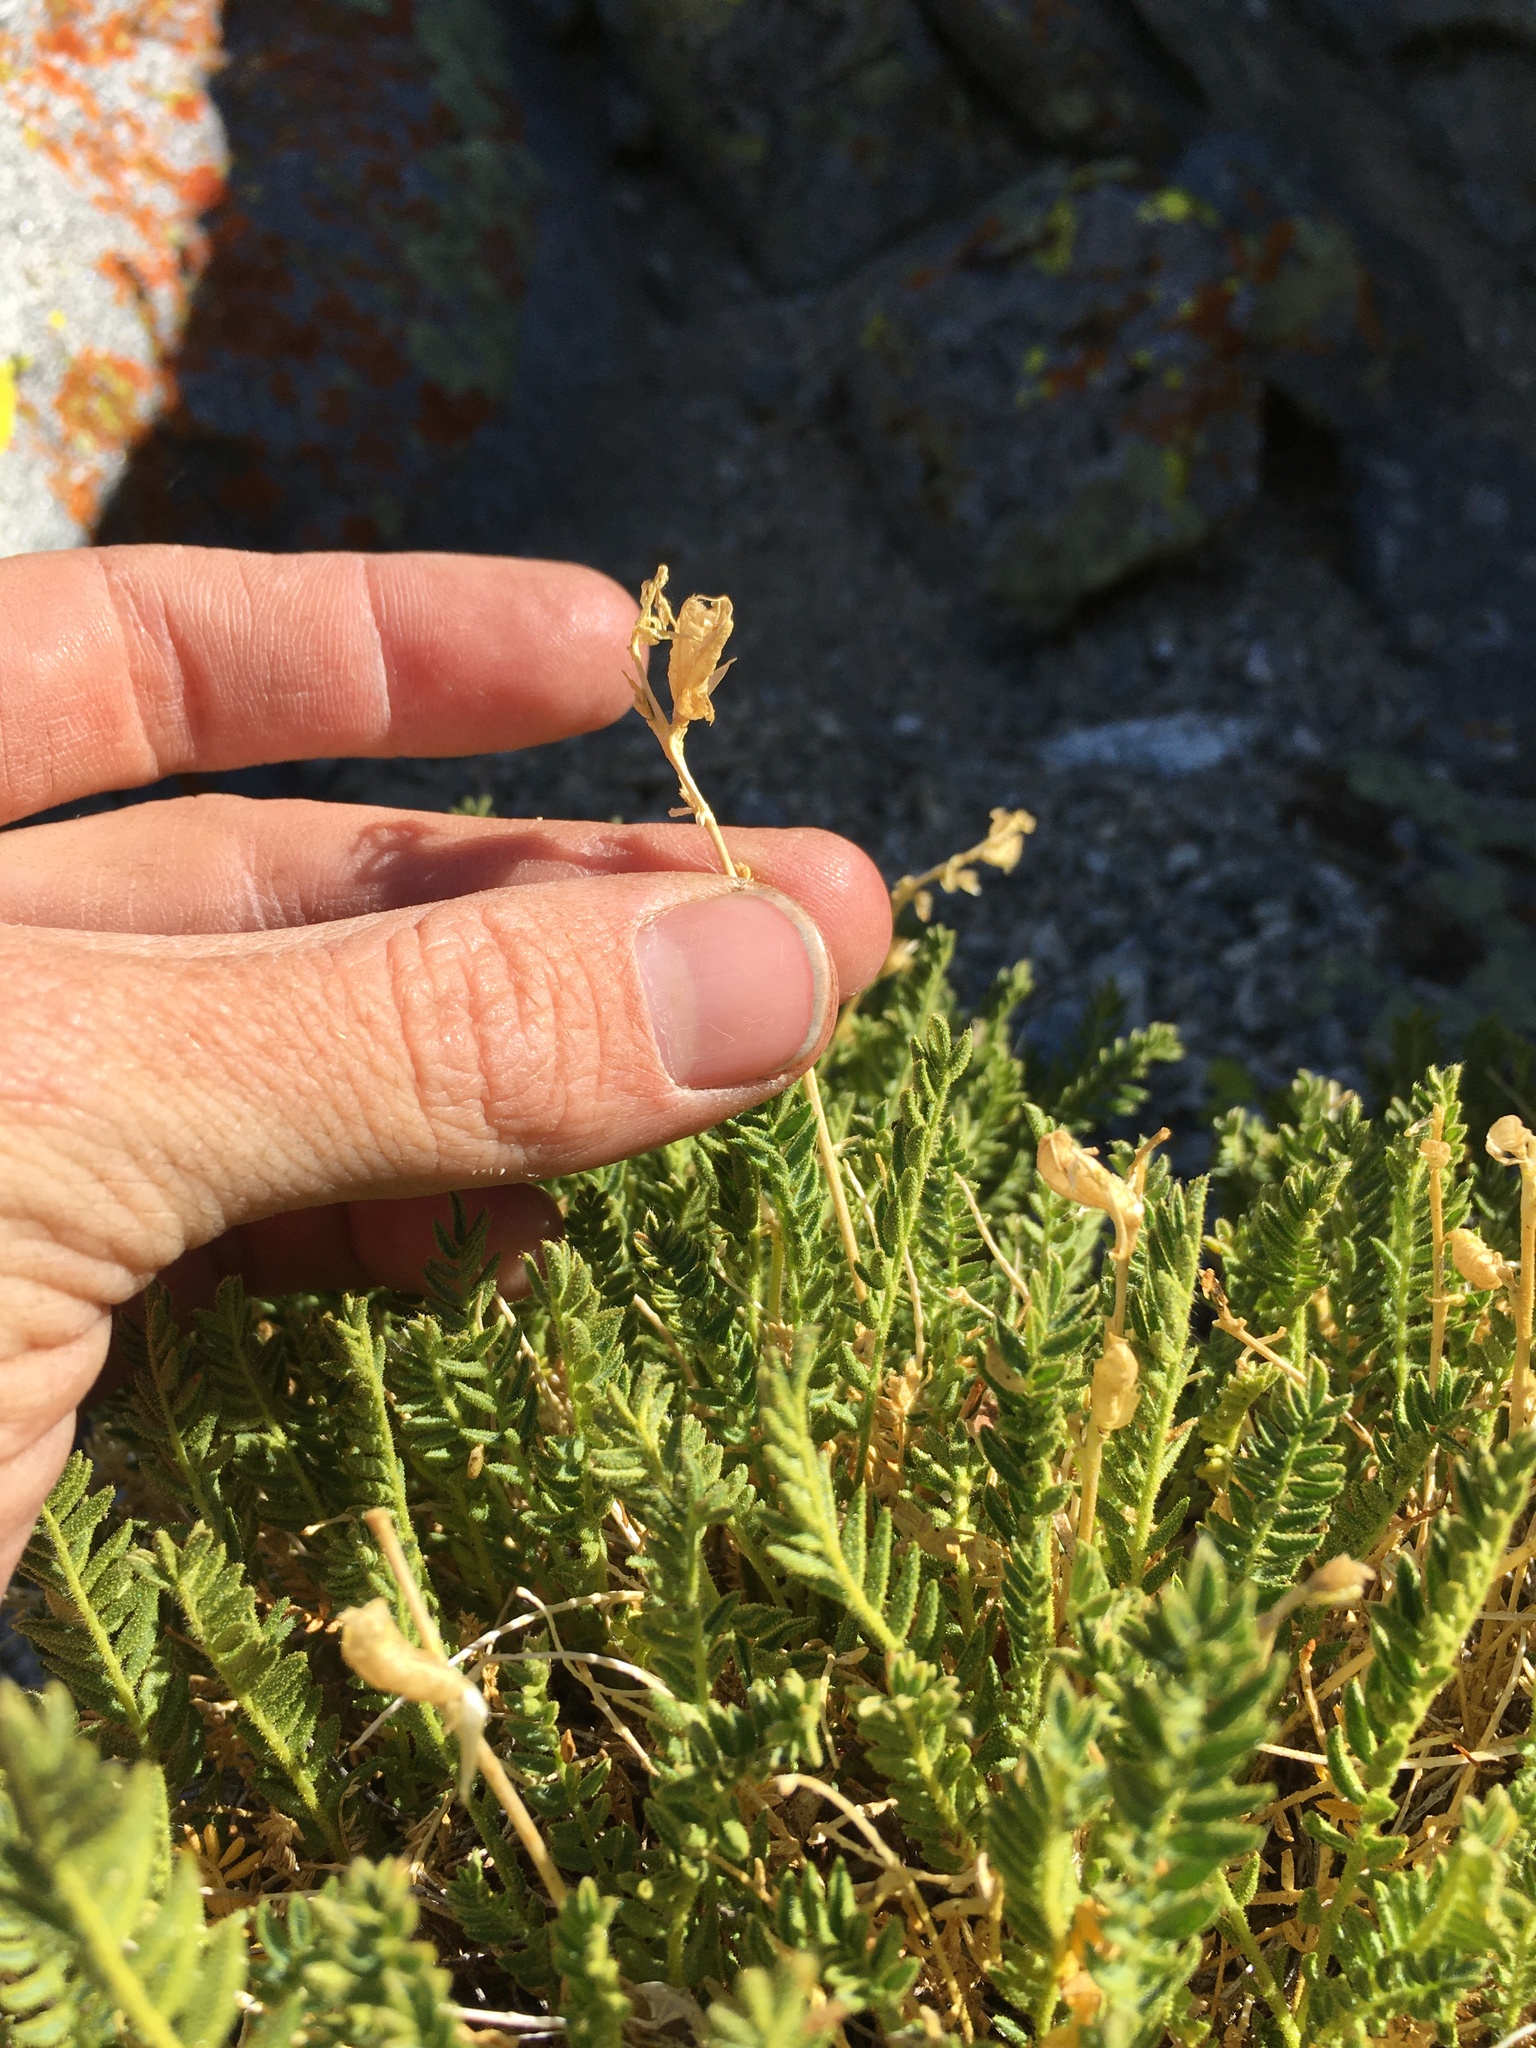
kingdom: Plantae
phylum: Tracheophyta
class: Magnoliopsida
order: Fabales
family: Fabaceae
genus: Oxytropis
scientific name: Oxytropis borealis
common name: Boreal locoweed
